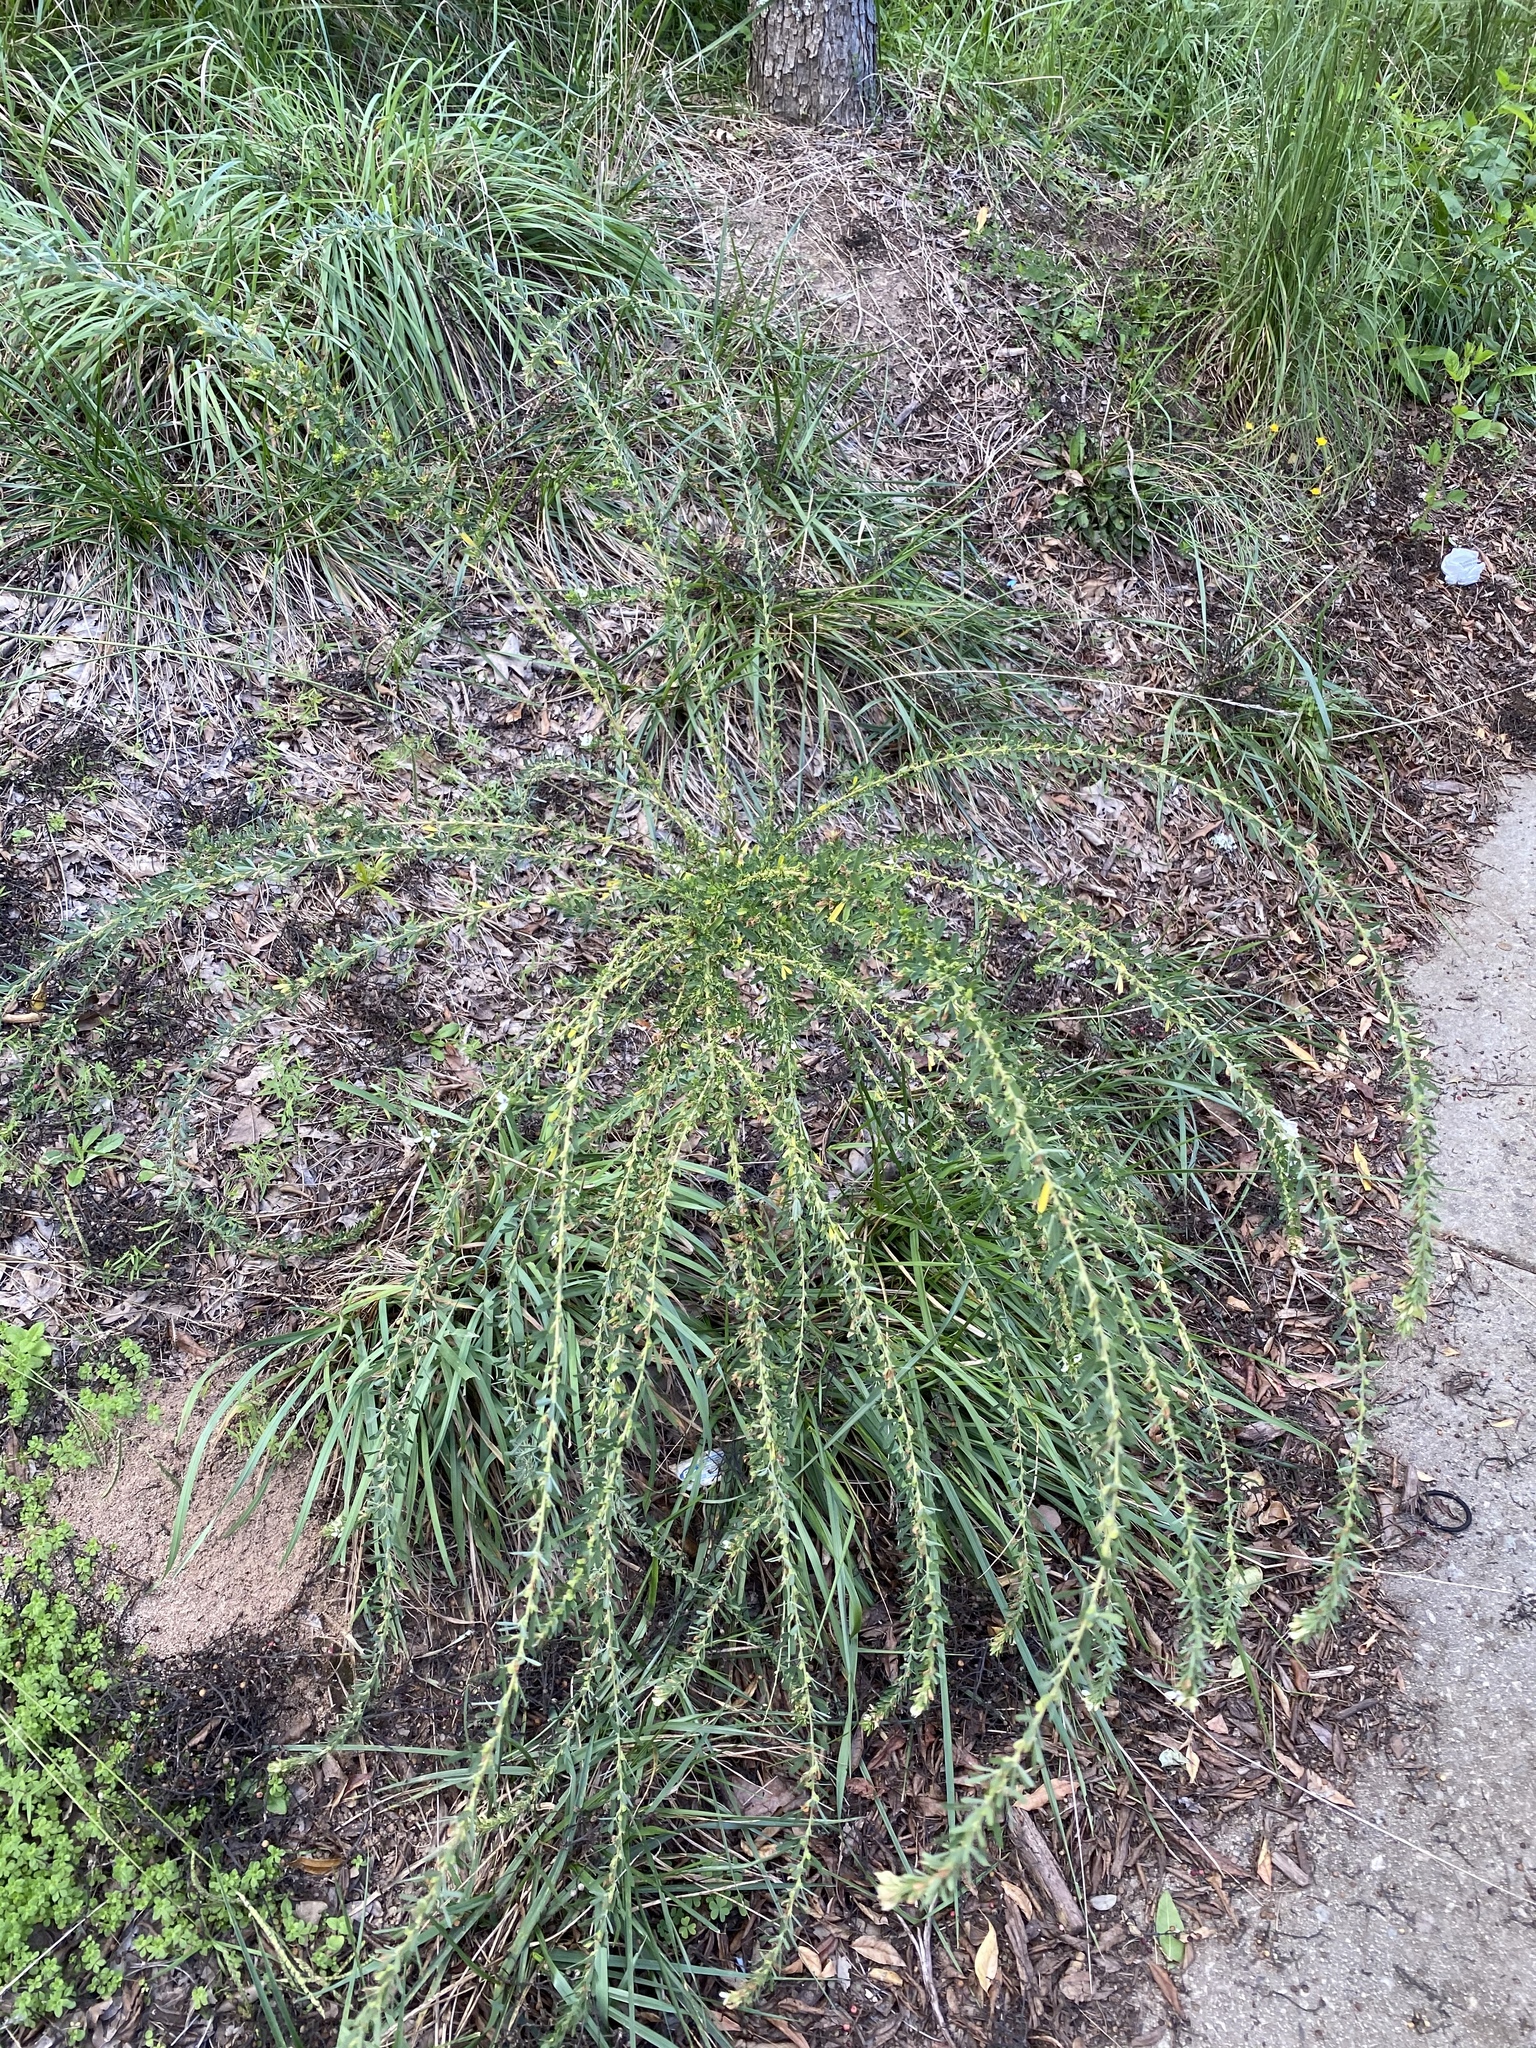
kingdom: Plantae
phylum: Tracheophyta
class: Magnoliopsida
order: Fabales
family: Fabaceae
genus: Lespedeza
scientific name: Lespedeza cuneata
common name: Chinese bush-clover
